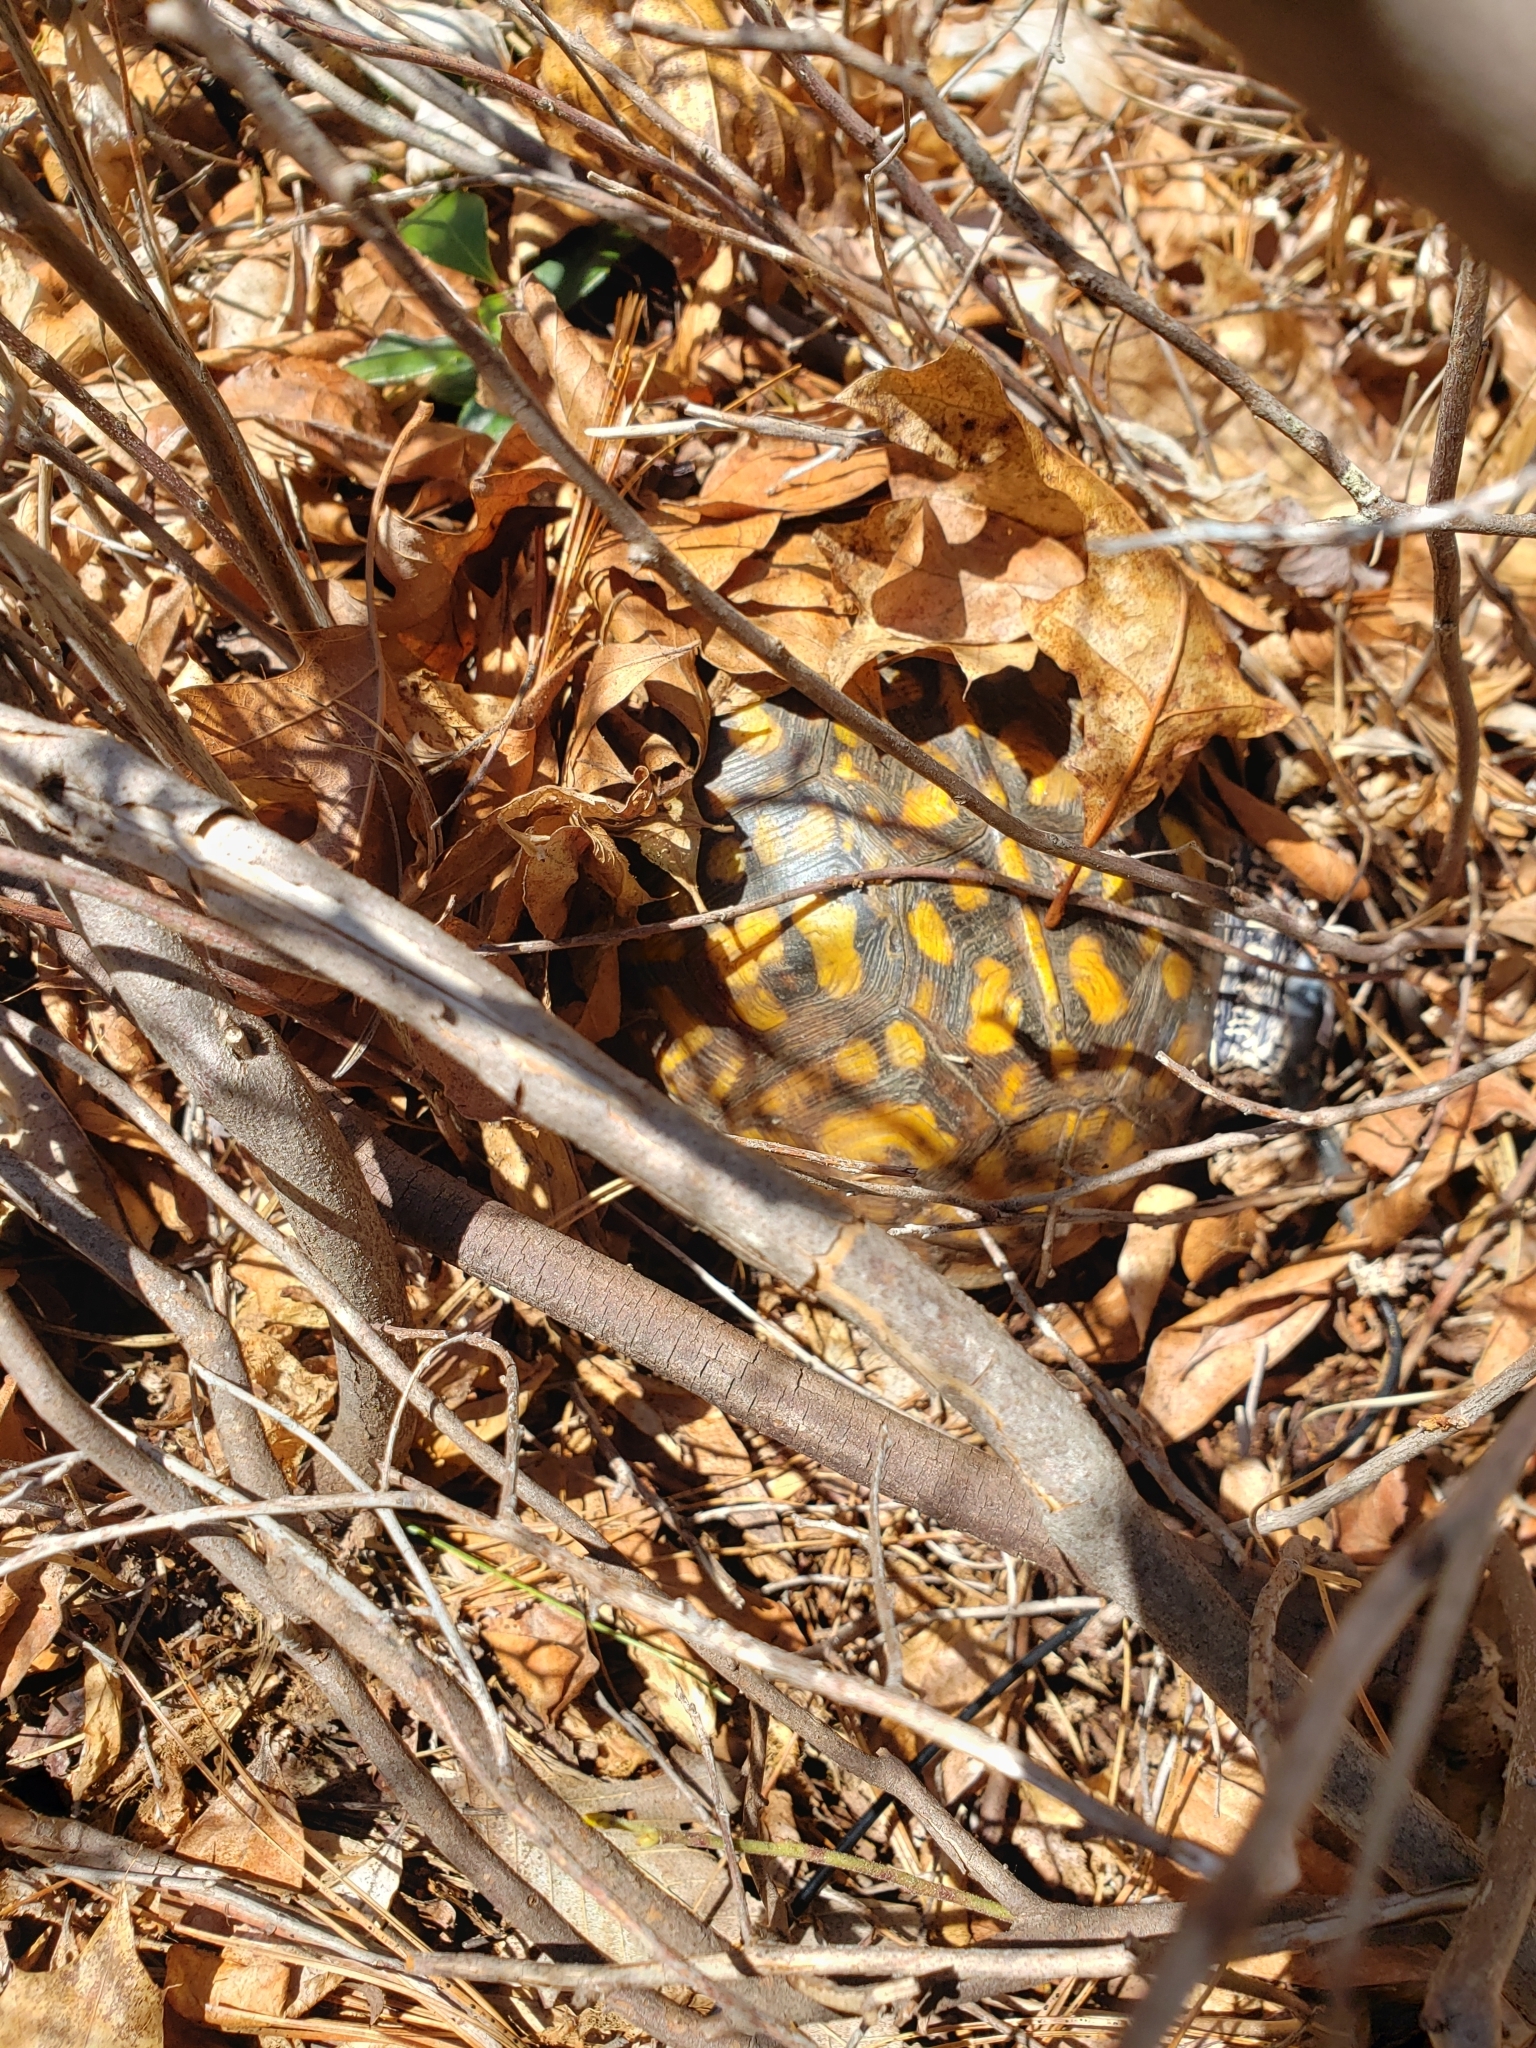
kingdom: Animalia
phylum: Chordata
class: Testudines
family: Emydidae
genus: Terrapene
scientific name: Terrapene carolina
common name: Common box turtle
